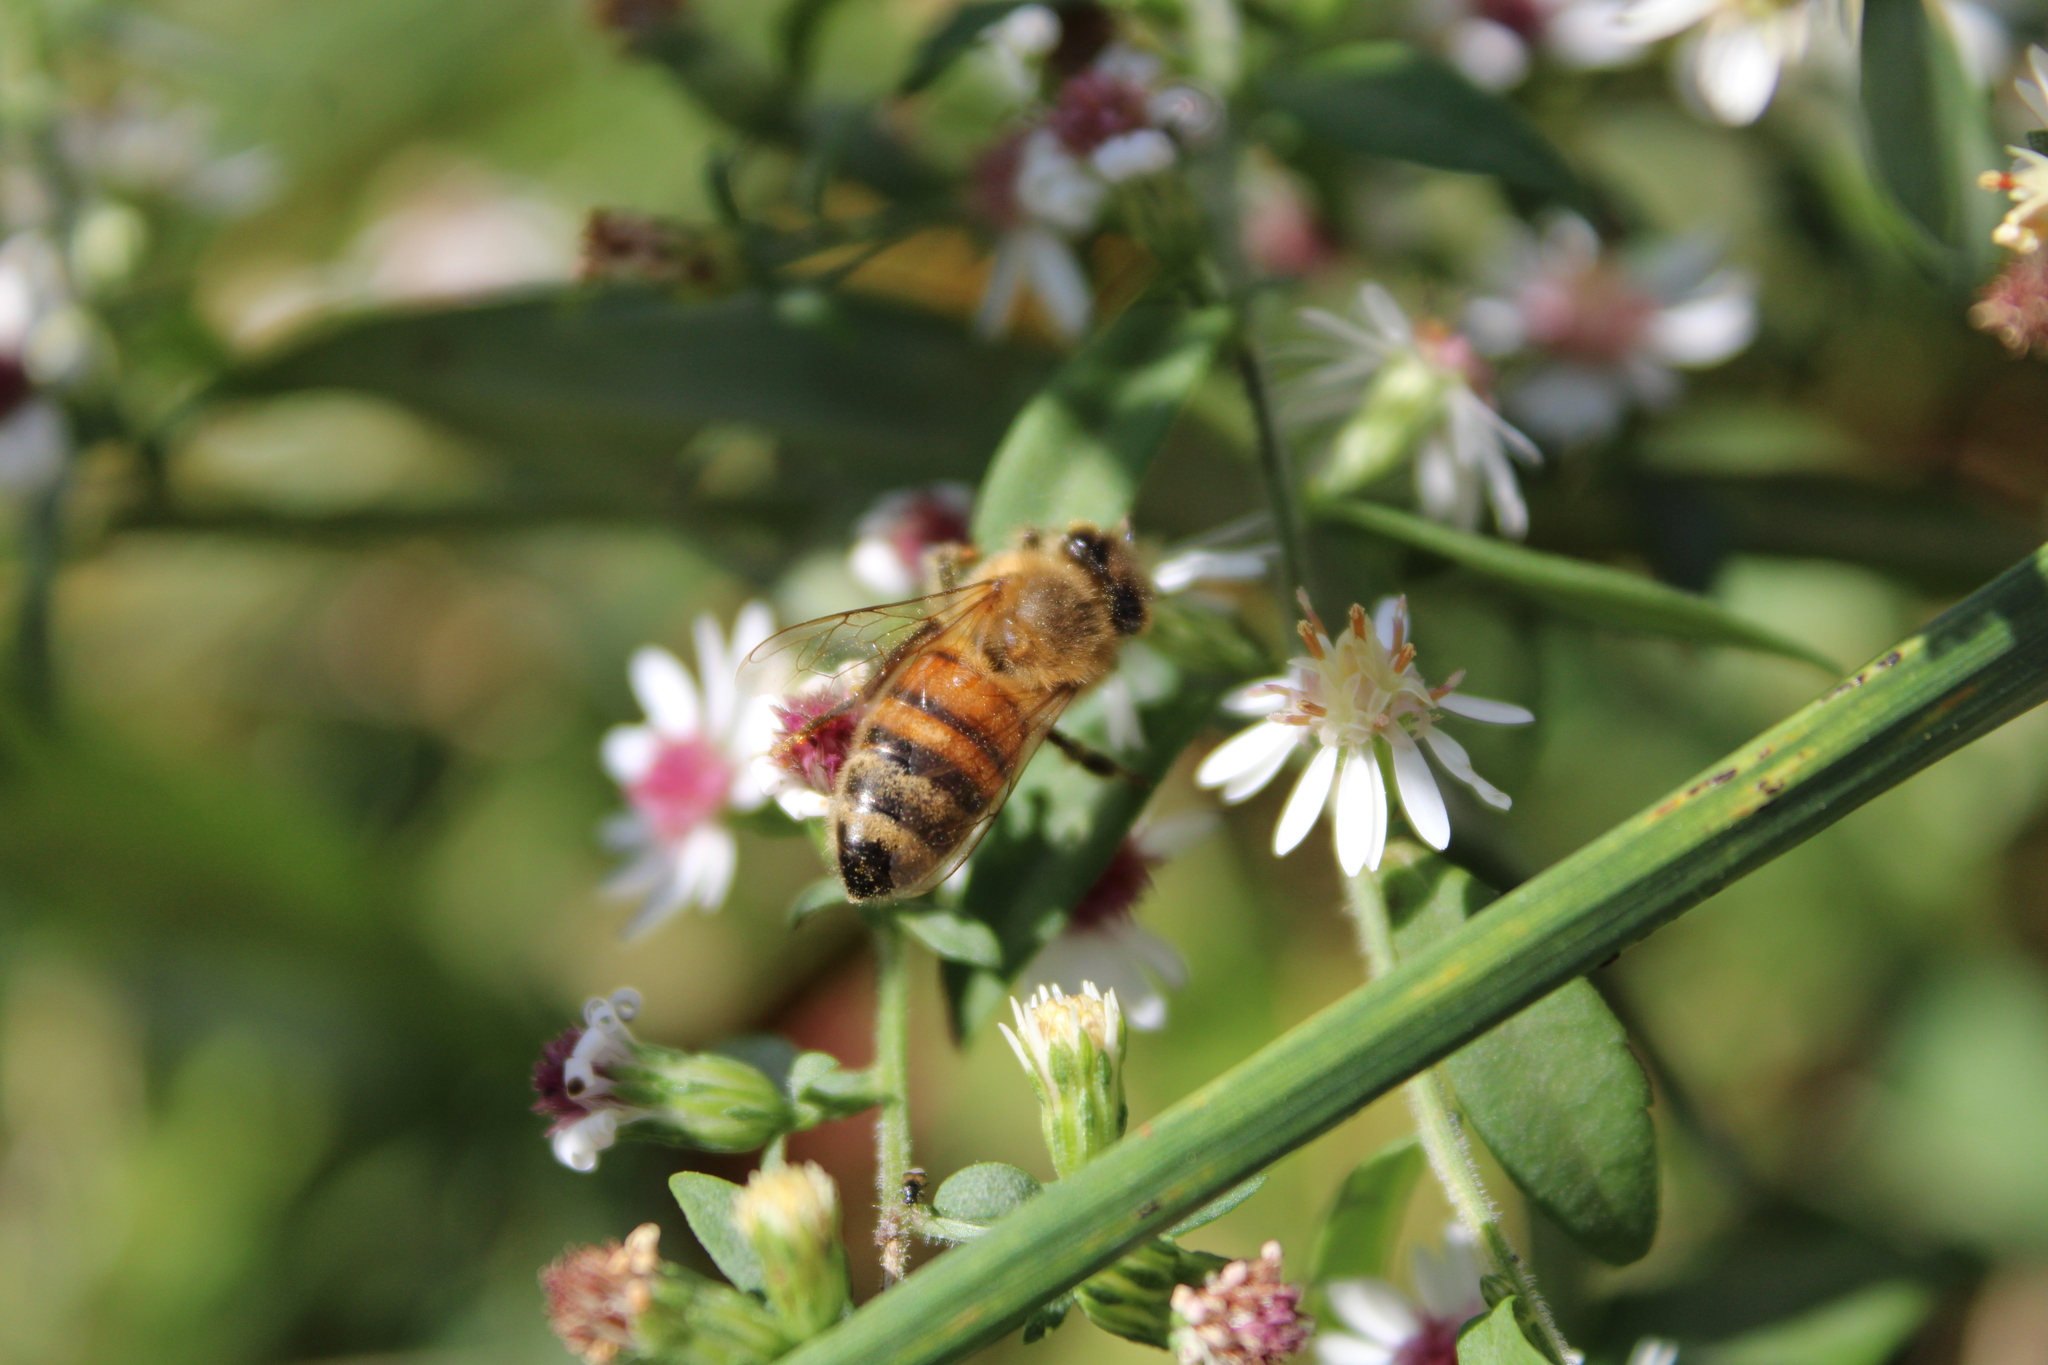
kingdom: Animalia
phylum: Arthropoda
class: Insecta
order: Hymenoptera
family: Apidae
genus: Apis
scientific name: Apis mellifera
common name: Honey bee
